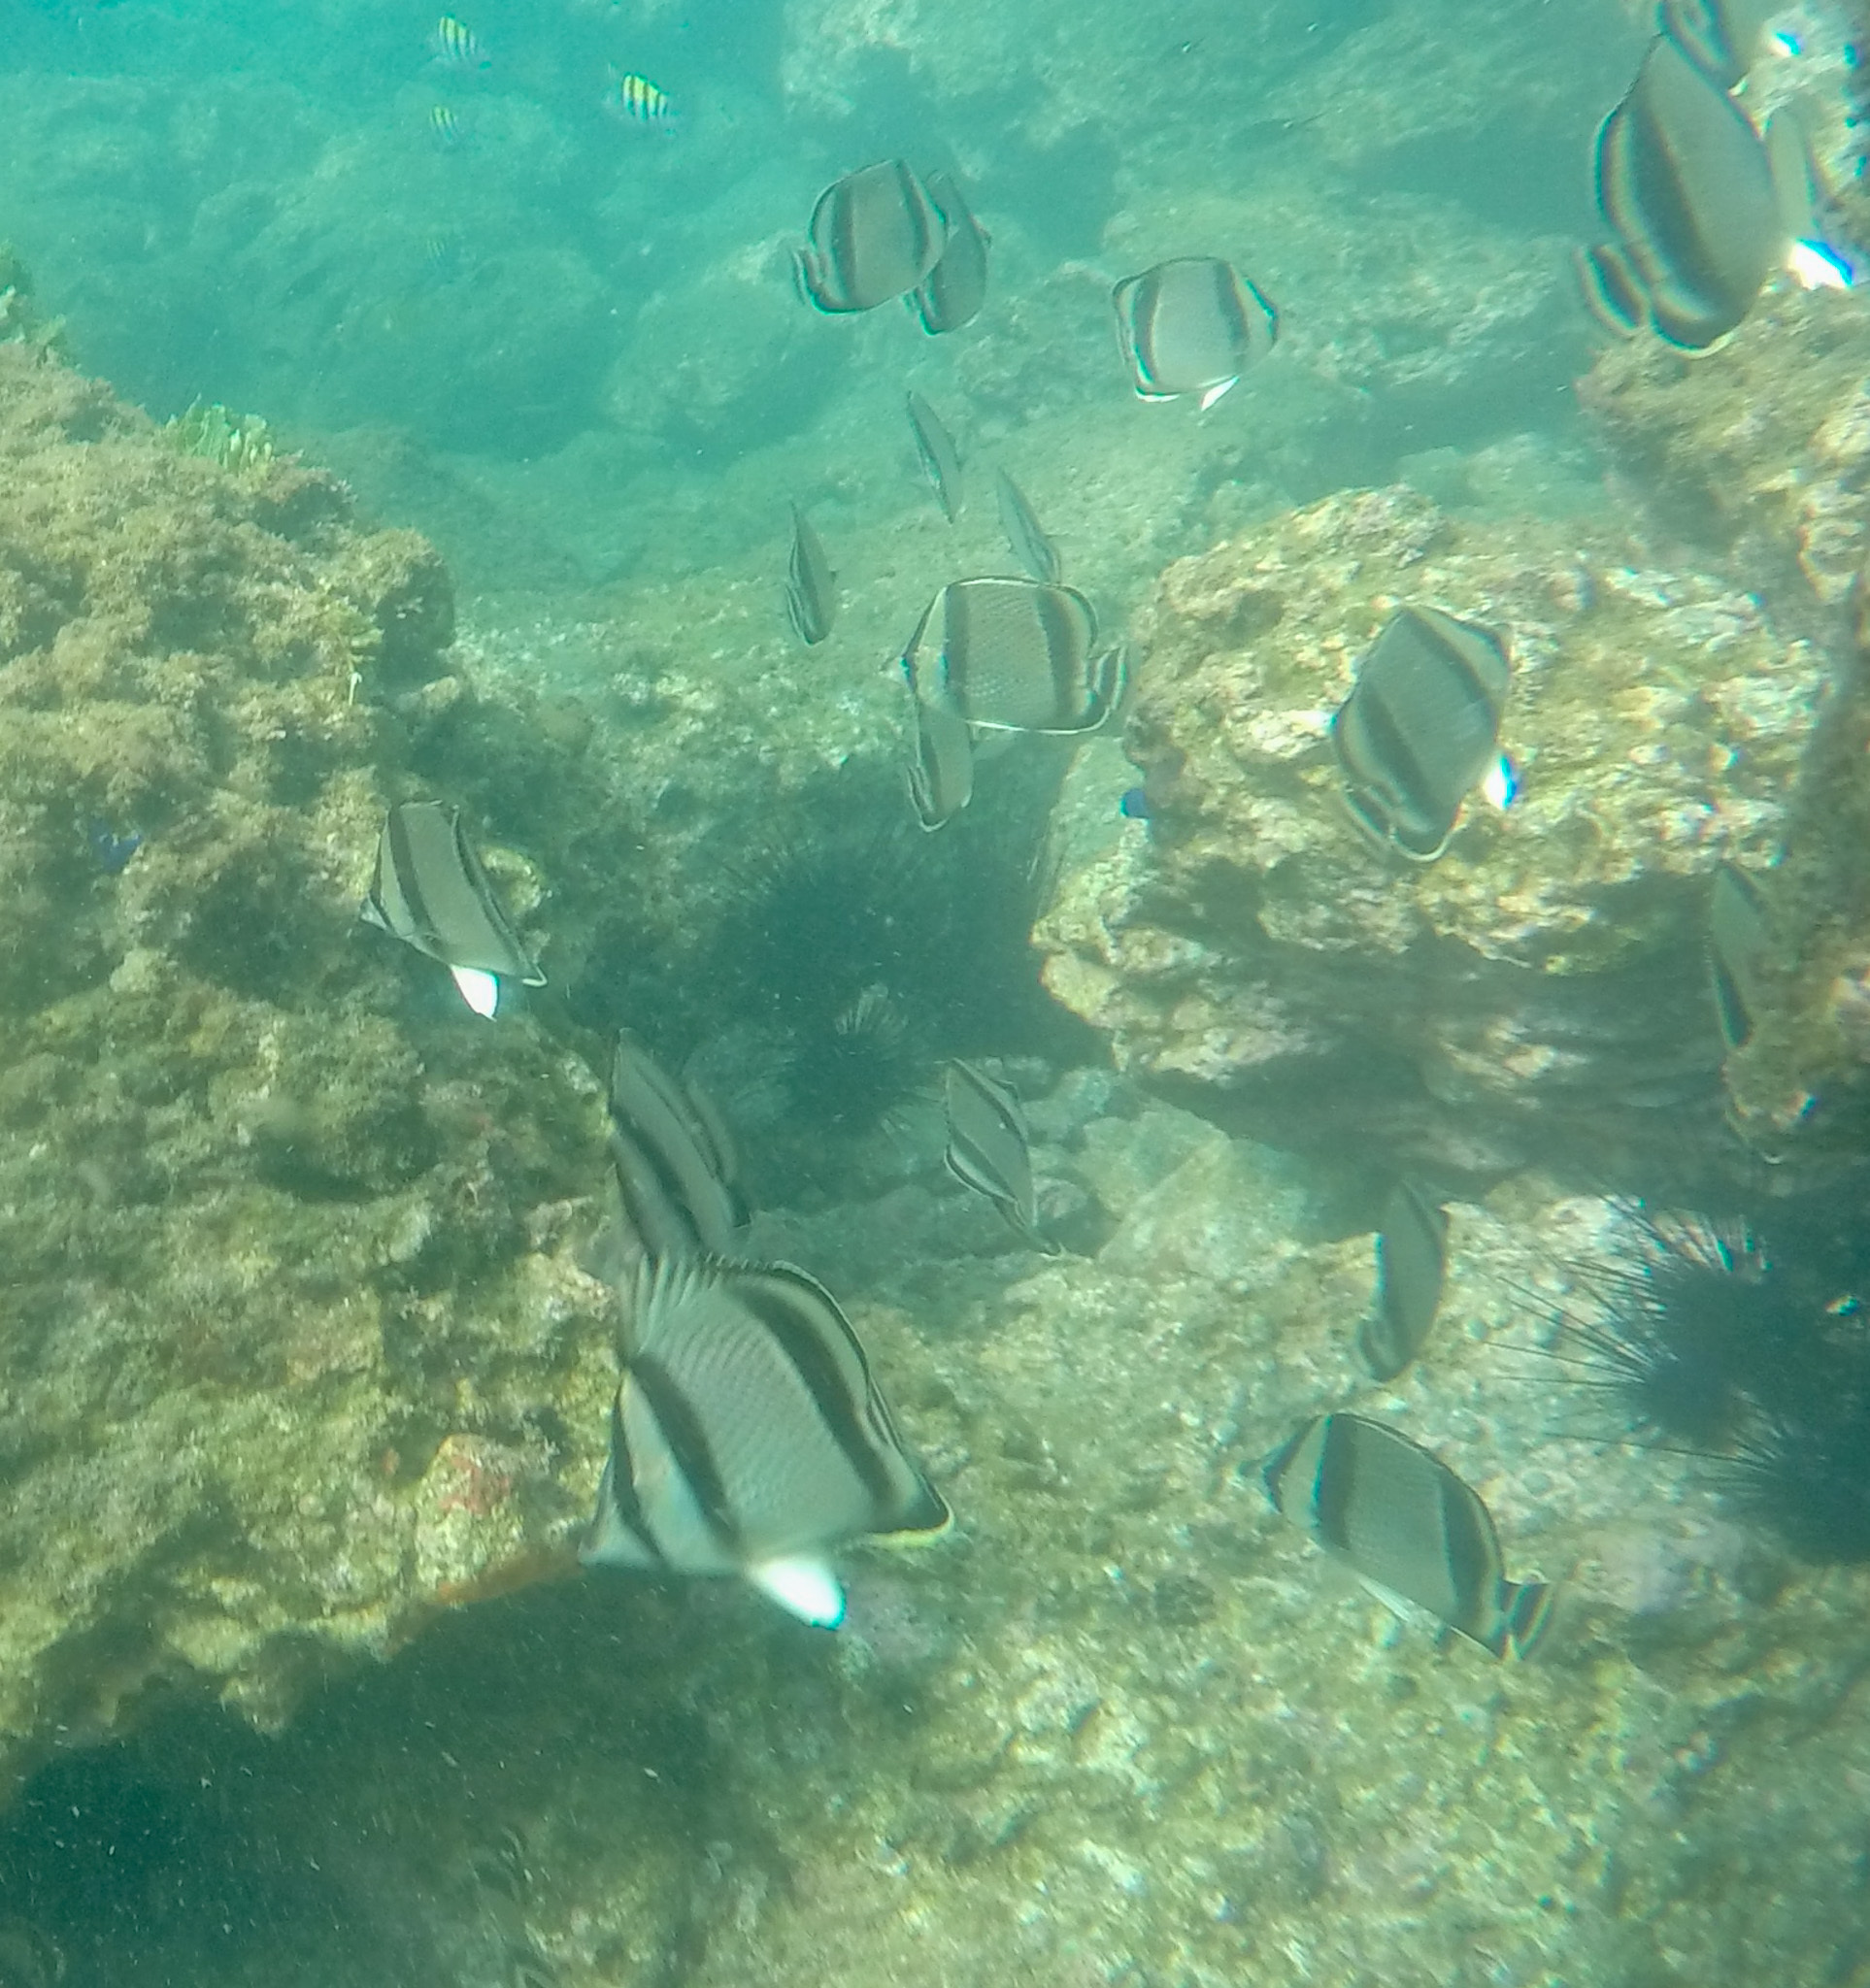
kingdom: Animalia
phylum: Chordata
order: Perciformes
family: Chaetodontidae
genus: Chaetodon
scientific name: Chaetodon humeralis
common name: Threebanded butterflyfish
